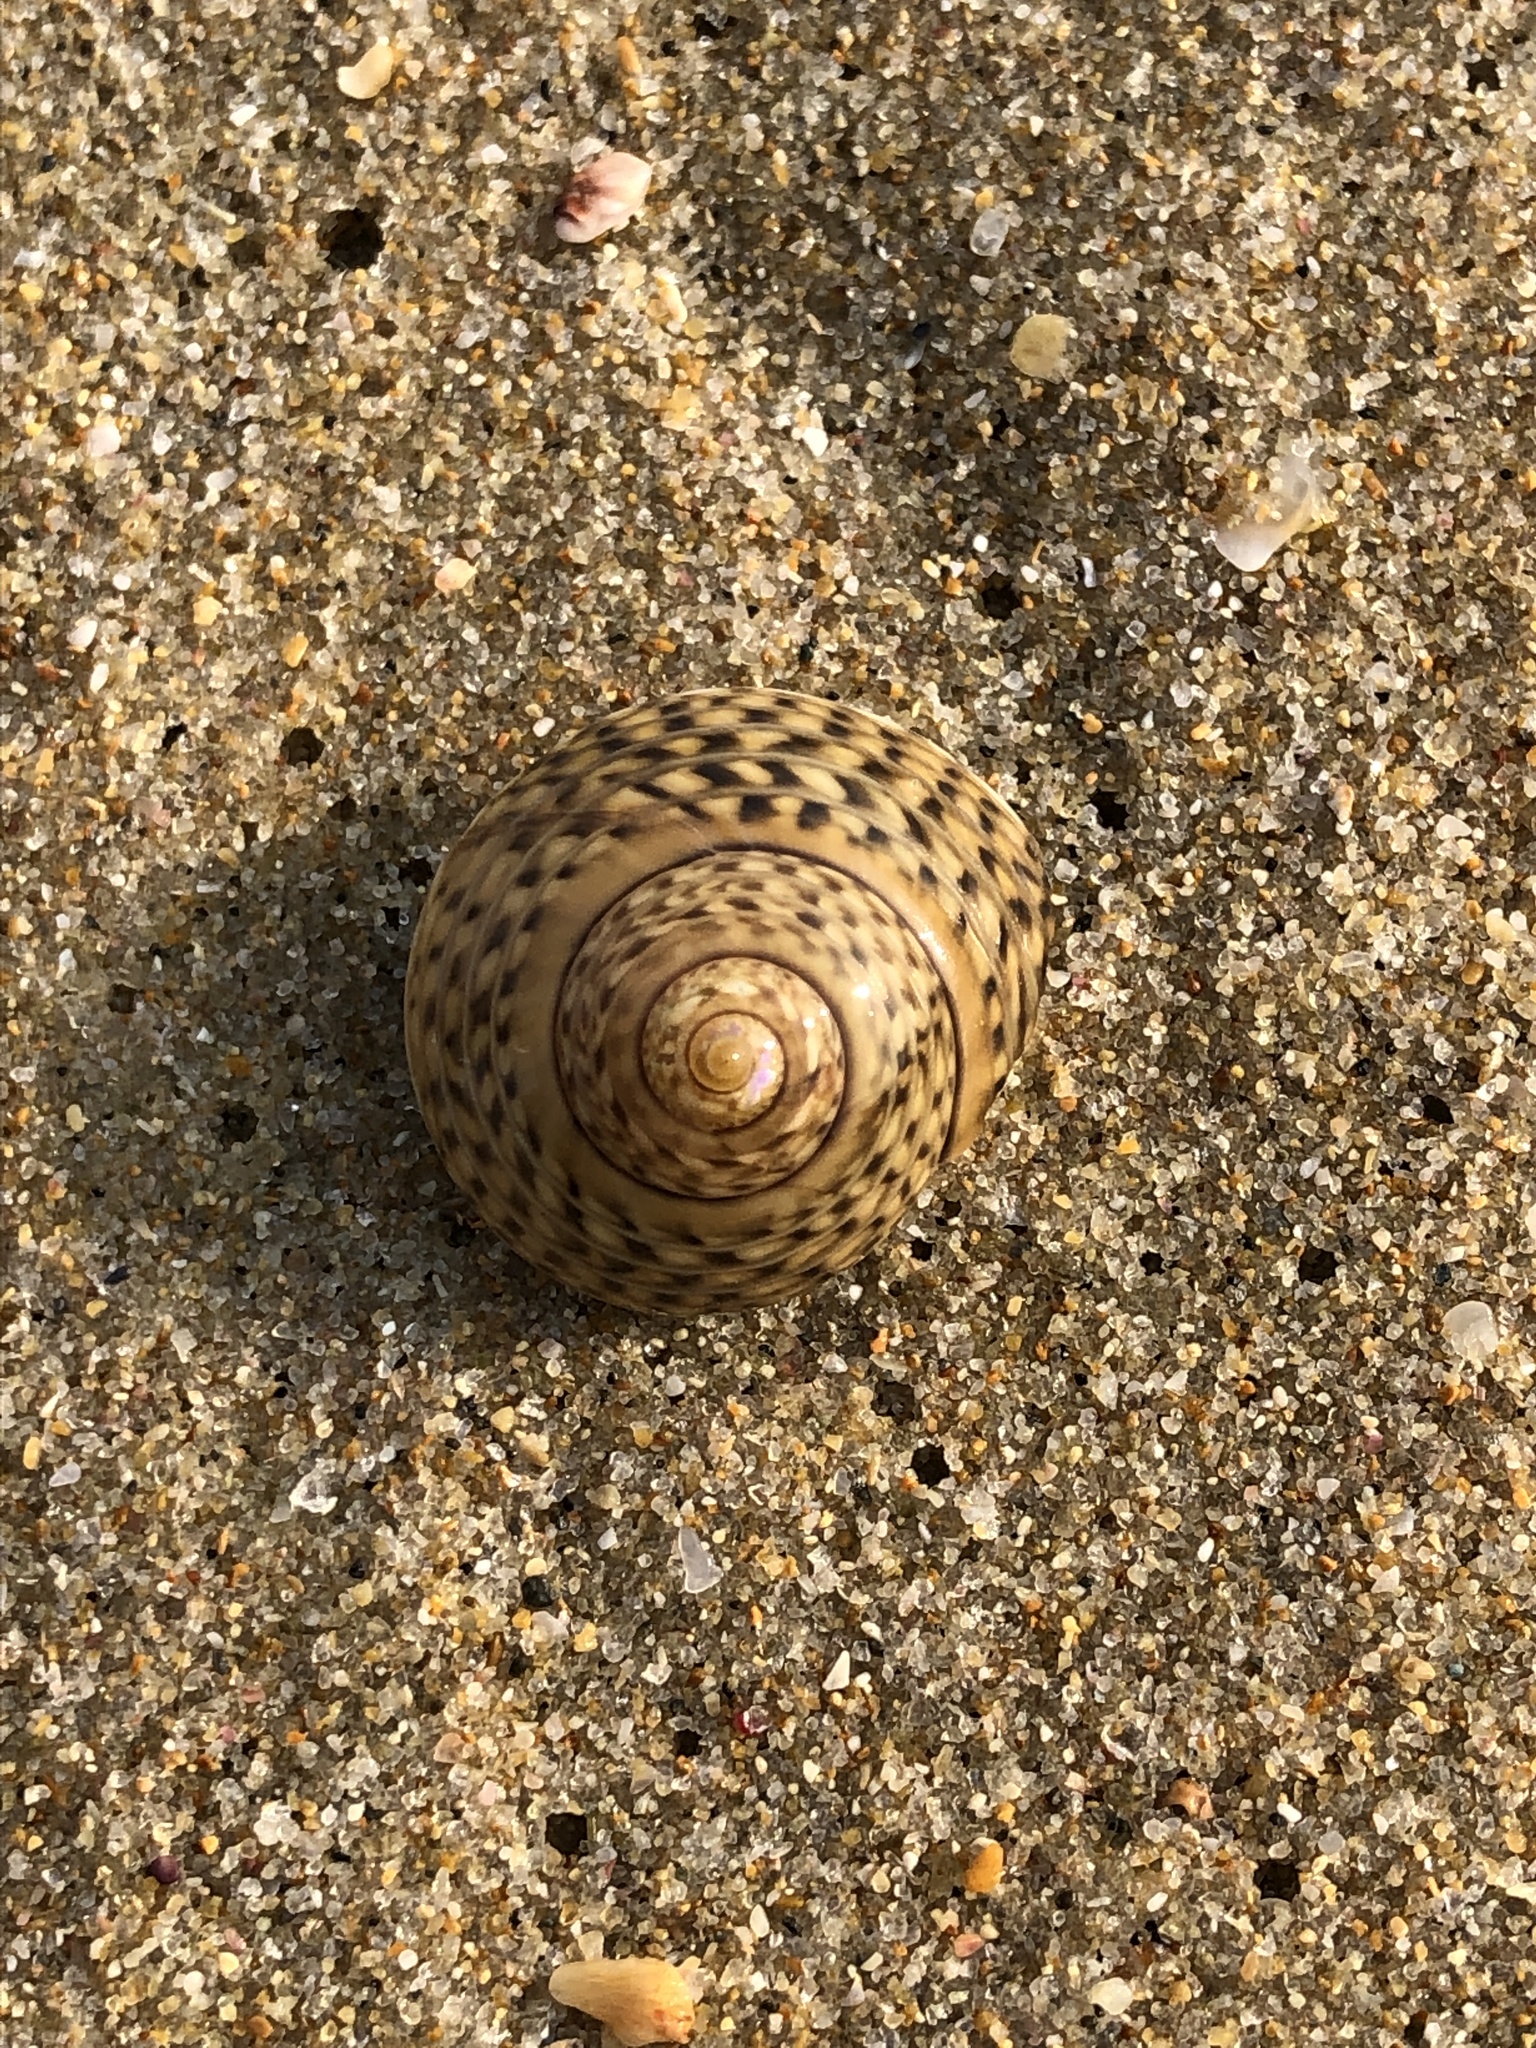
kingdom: Animalia
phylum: Mollusca
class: Gastropoda
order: Trochida
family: Trochidae
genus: Umbonium
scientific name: Umbonium costatum
